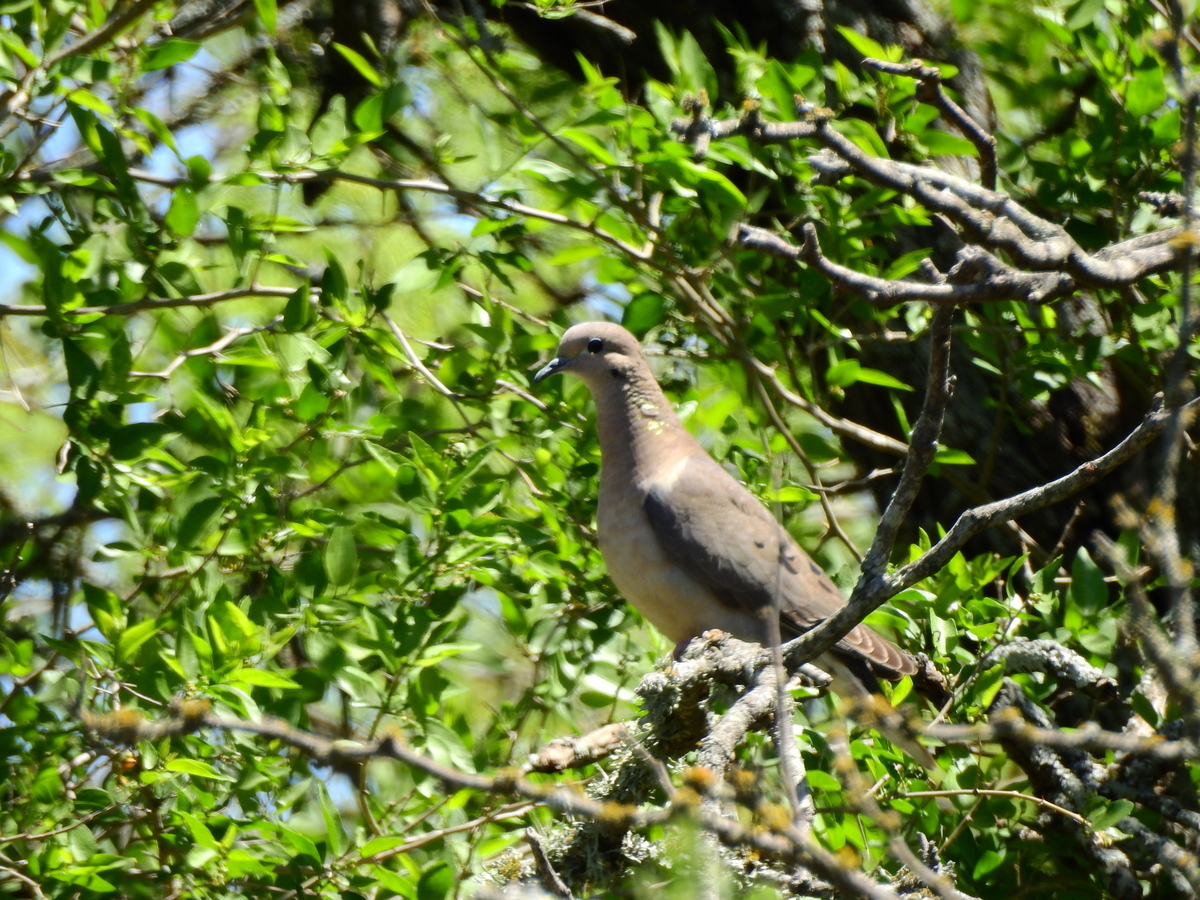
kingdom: Animalia
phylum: Chordata
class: Aves
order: Columbiformes
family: Columbidae
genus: Zenaida
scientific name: Zenaida auriculata
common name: Eared dove
